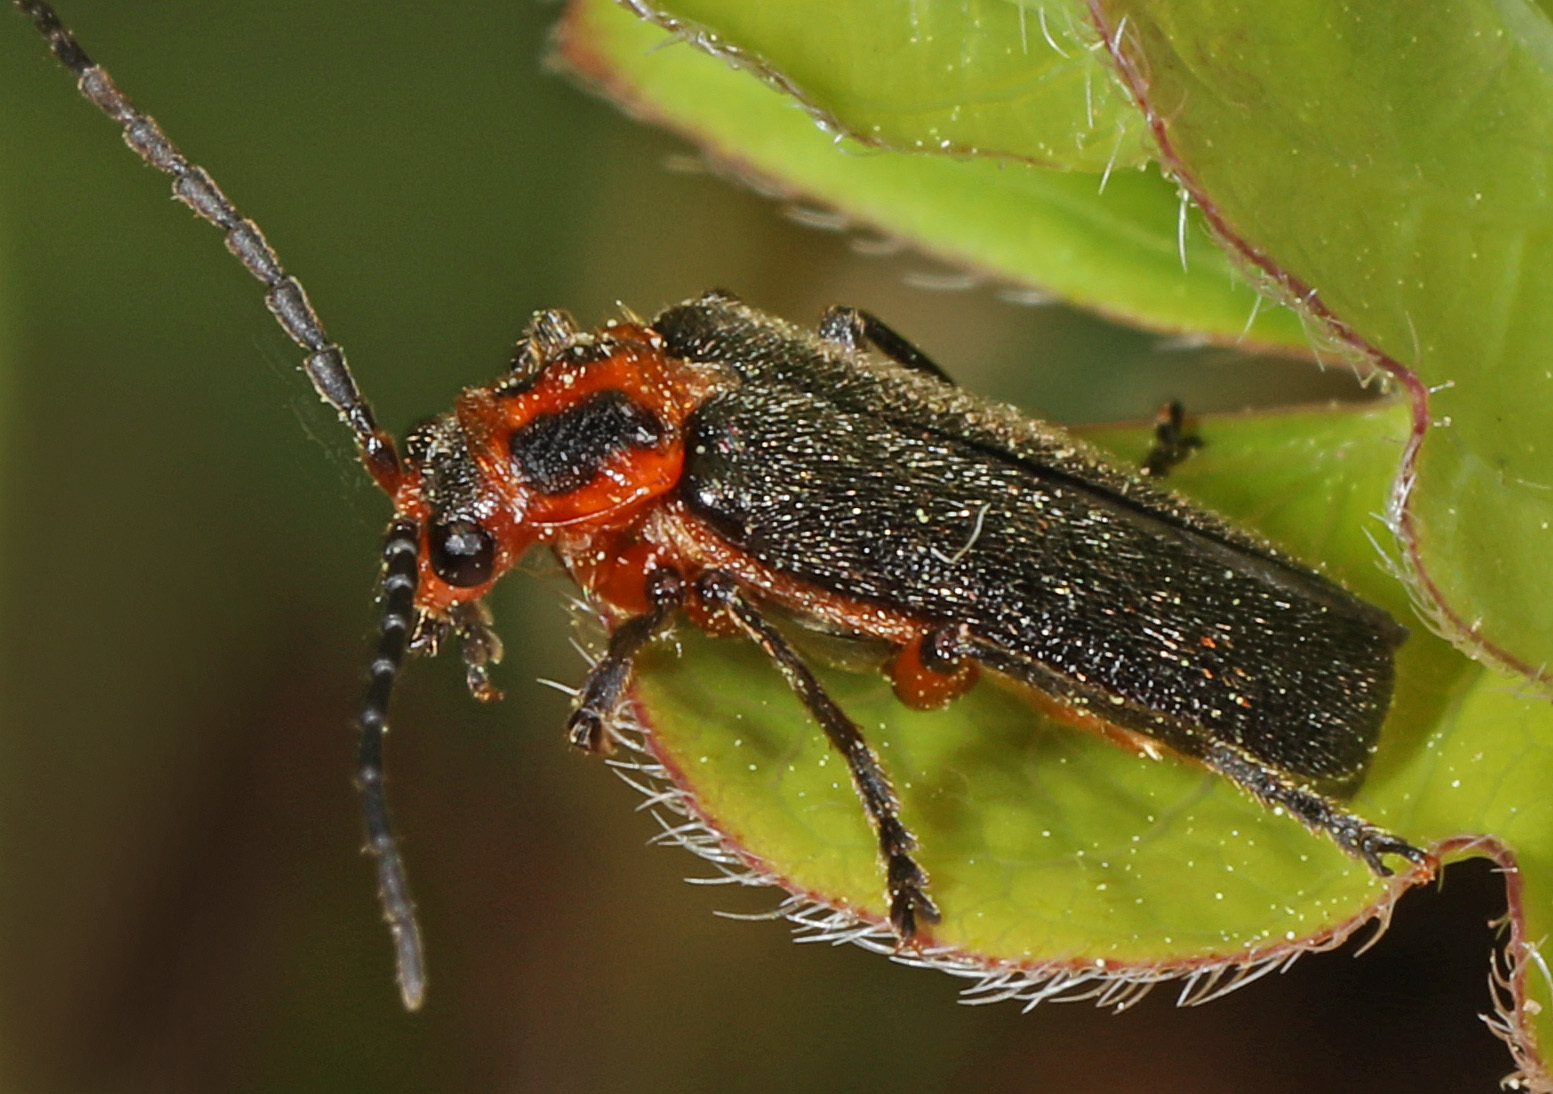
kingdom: Animalia
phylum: Arthropoda
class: Insecta
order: Coleoptera
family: Cantharidae
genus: Atalantycha
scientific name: Atalantycha bilineata
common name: Two-lined leatherwing
